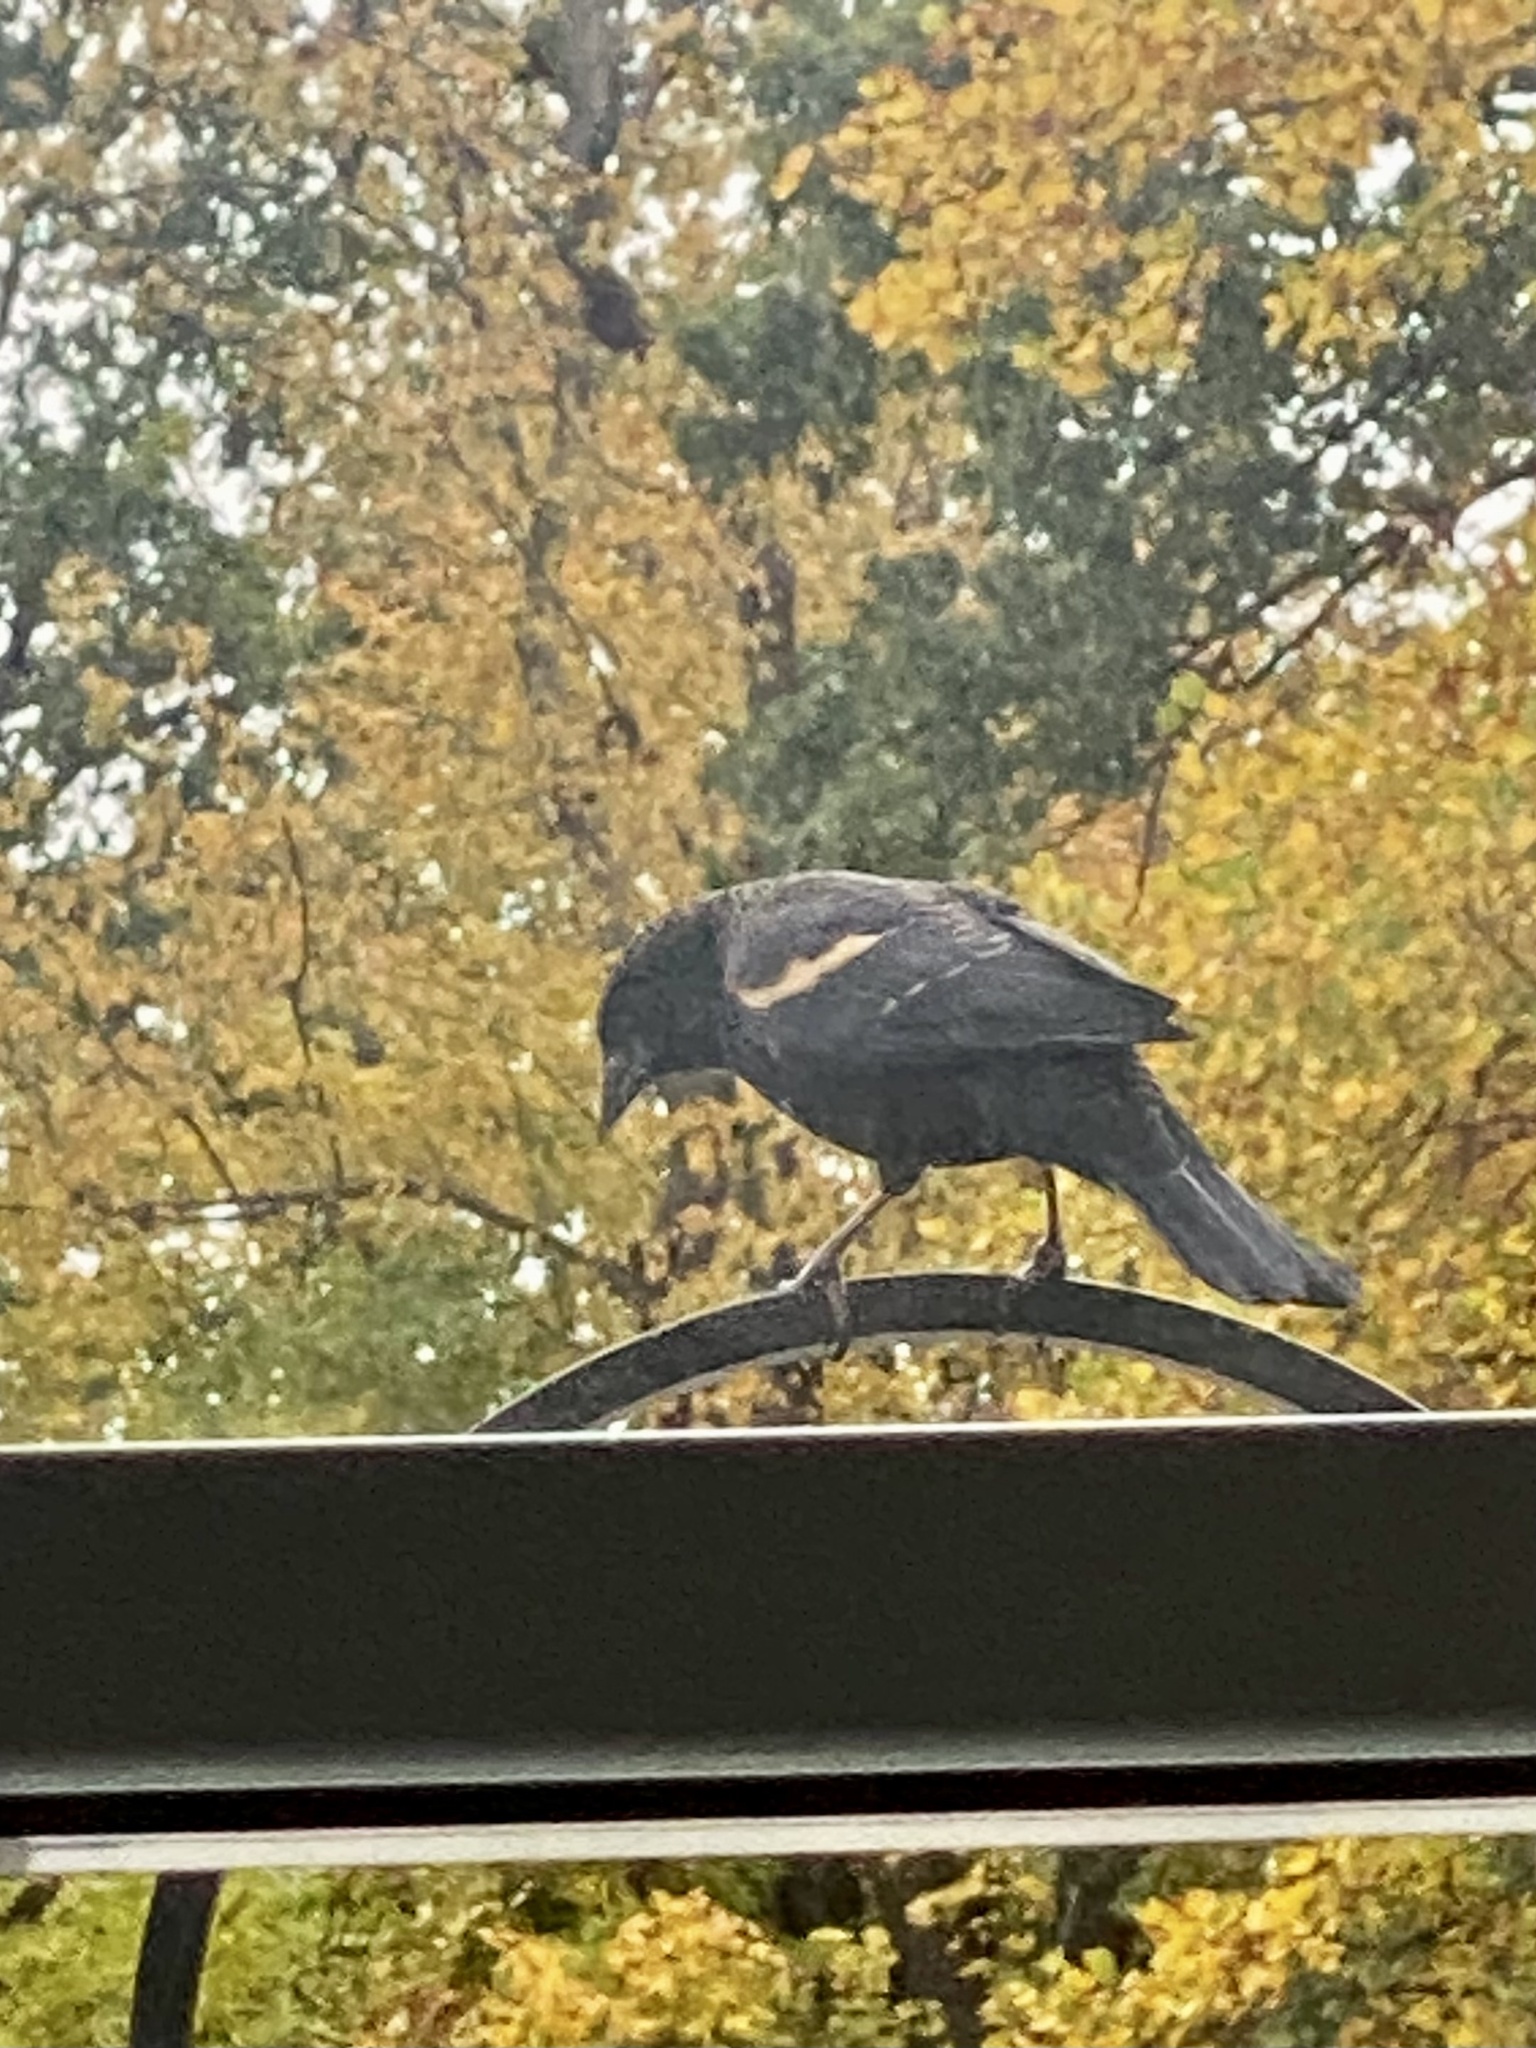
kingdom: Animalia
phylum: Chordata
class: Aves
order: Passeriformes
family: Icteridae
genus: Agelaius
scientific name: Agelaius phoeniceus
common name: Red-winged blackbird
